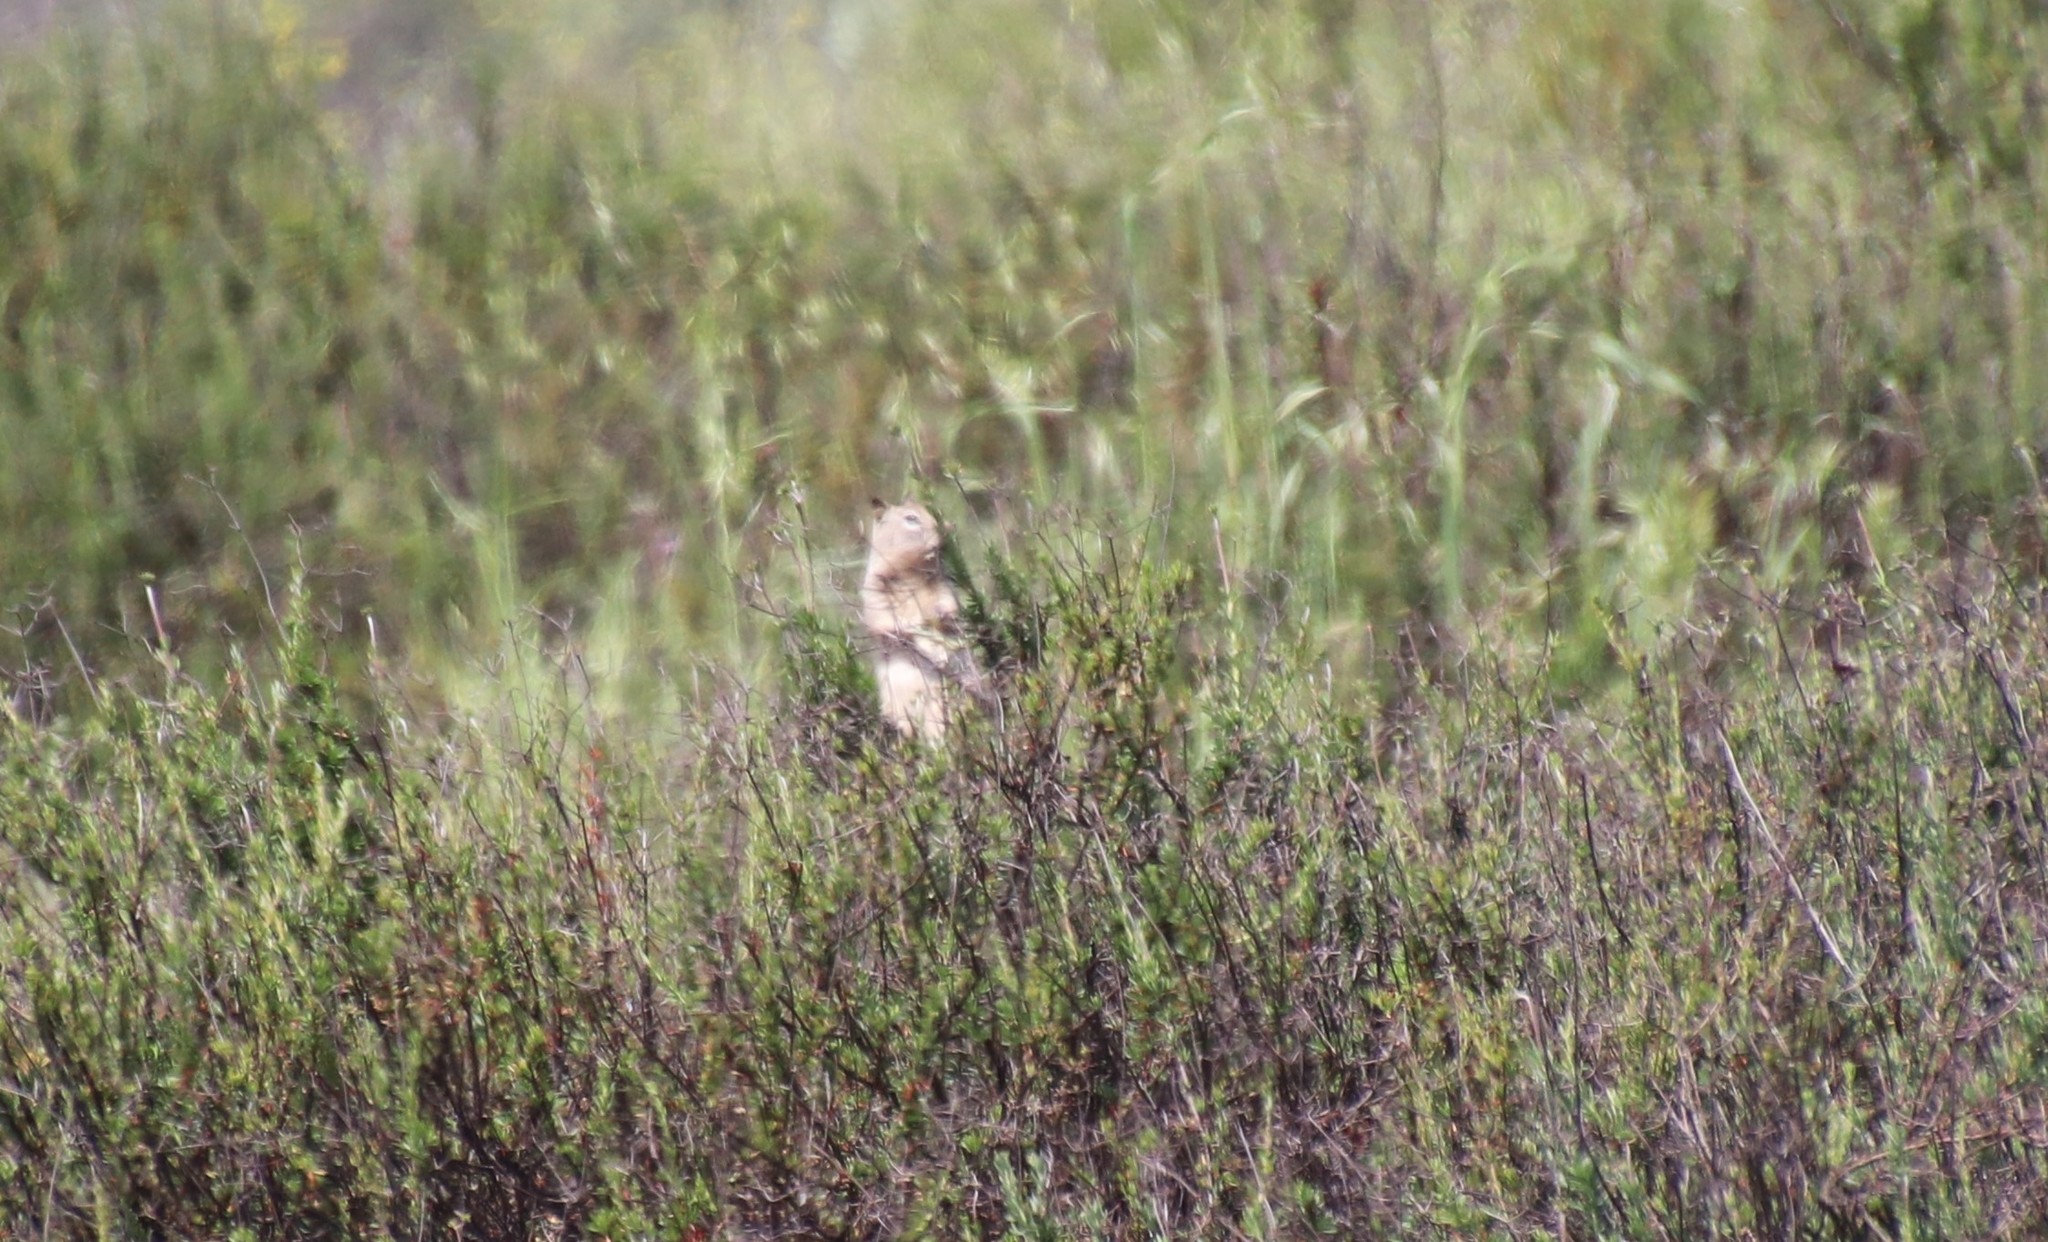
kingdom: Animalia
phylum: Chordata
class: Mammalia
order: Rodentia
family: Sciuridae
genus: Otospermophilus
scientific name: Otospermophilus beecheyi
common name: California ground squirrel
